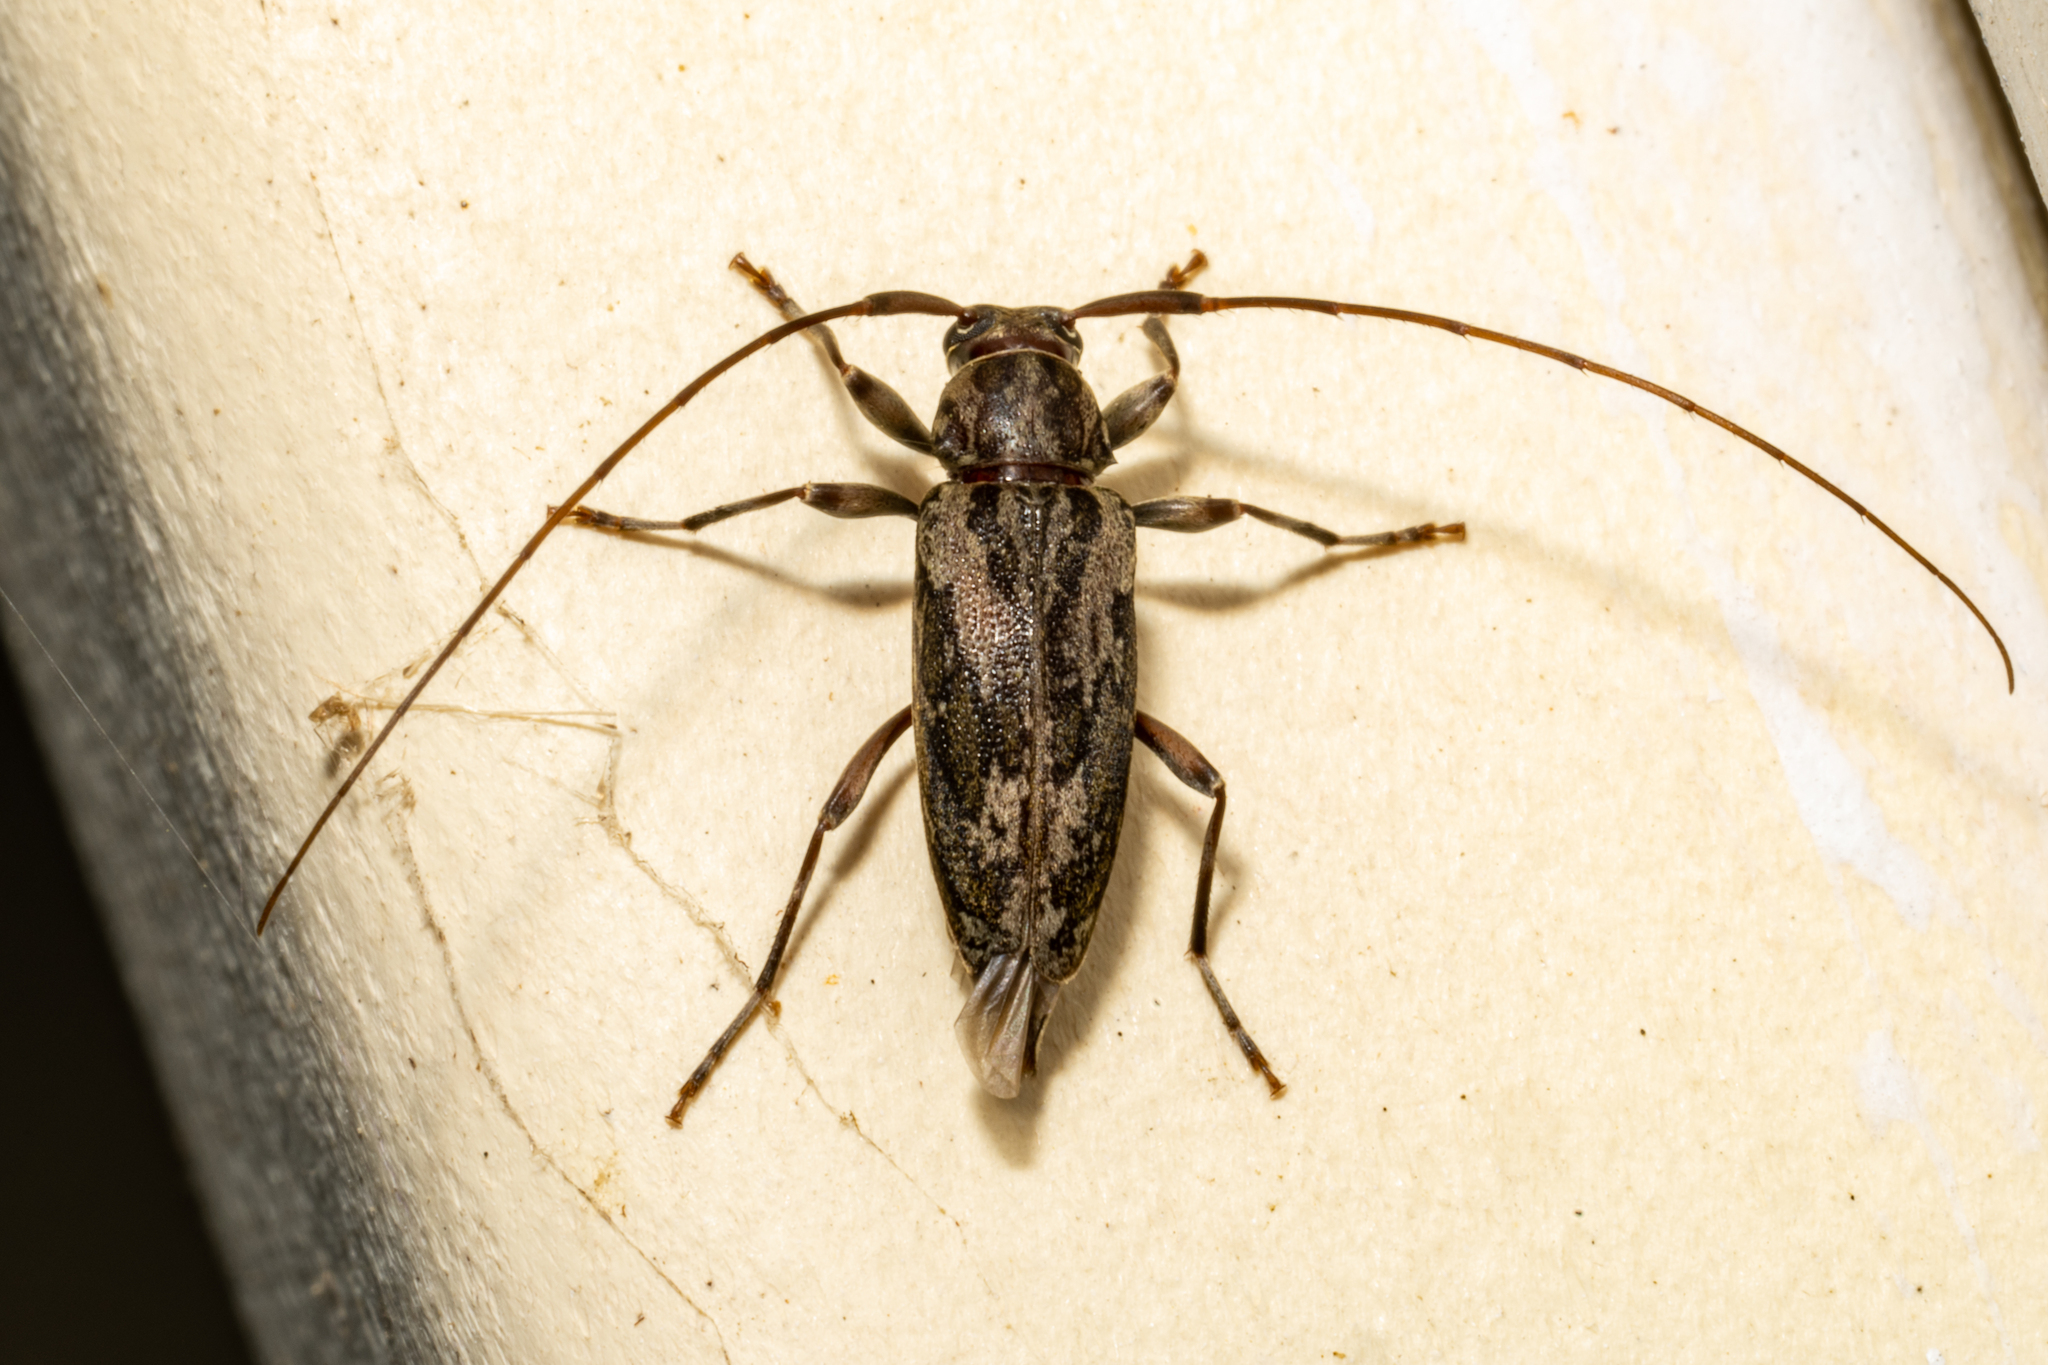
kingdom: Animalia
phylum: Arthropoda
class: Insecta
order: Coleoptera
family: Cerambycidae
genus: Lepturges
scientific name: Lepturges confluens
